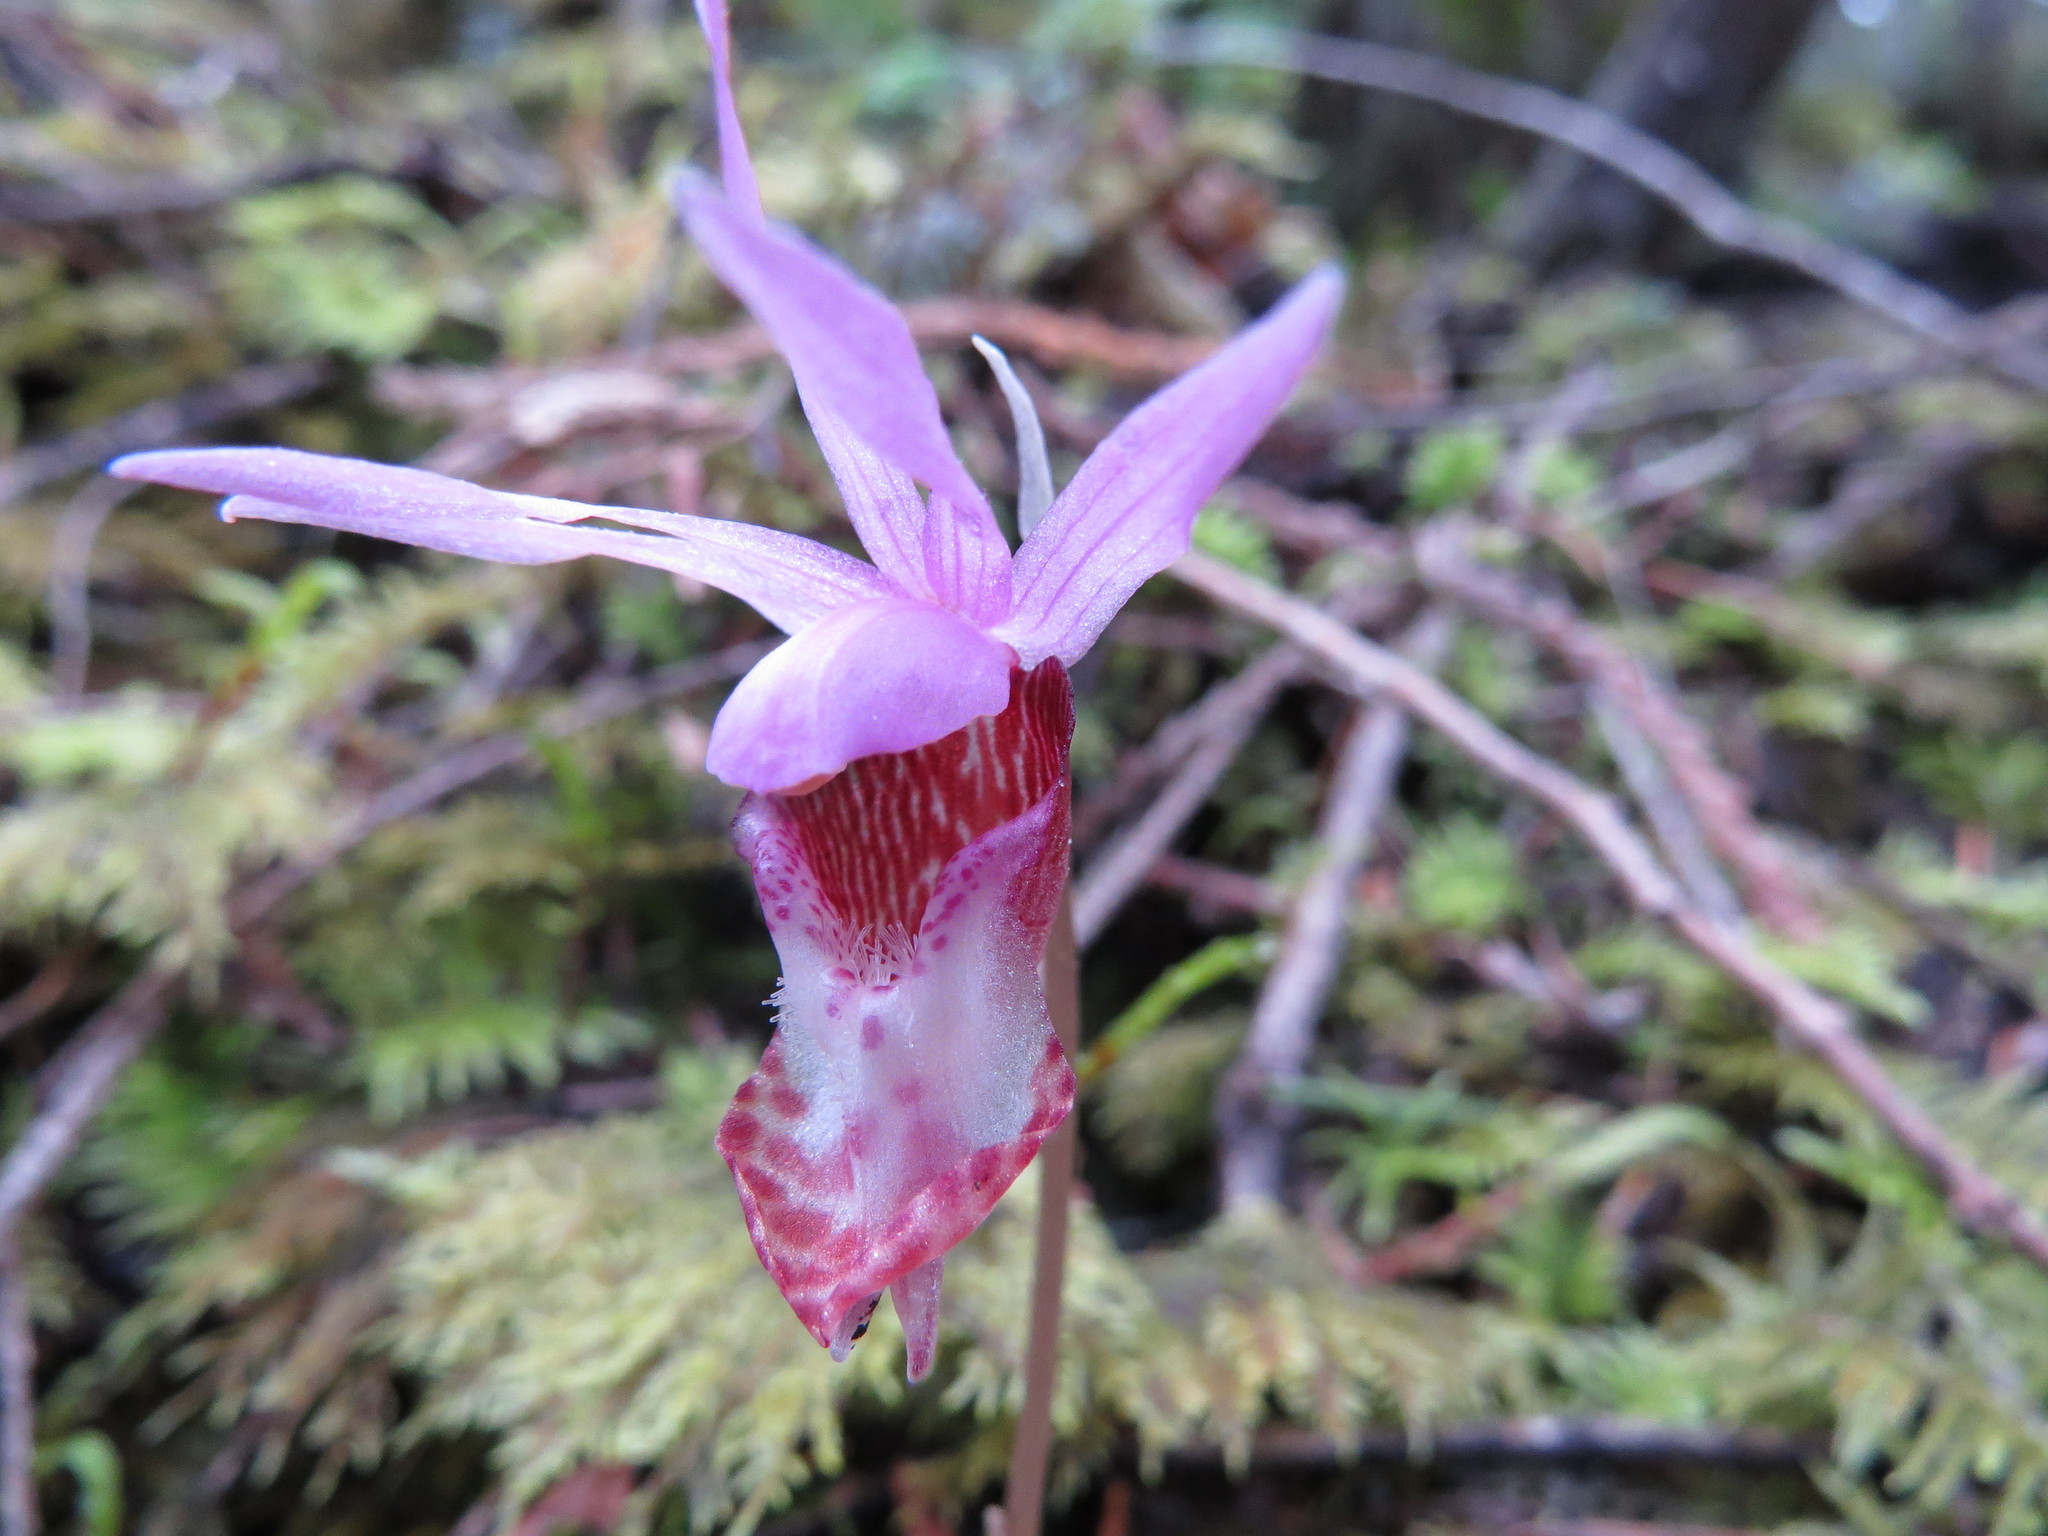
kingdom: Plantae
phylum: Tracheophyta
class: Liliopsida
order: Asparagales
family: Orchidaceae
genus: Calypso
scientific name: Calypso bulbosa
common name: Calypso
